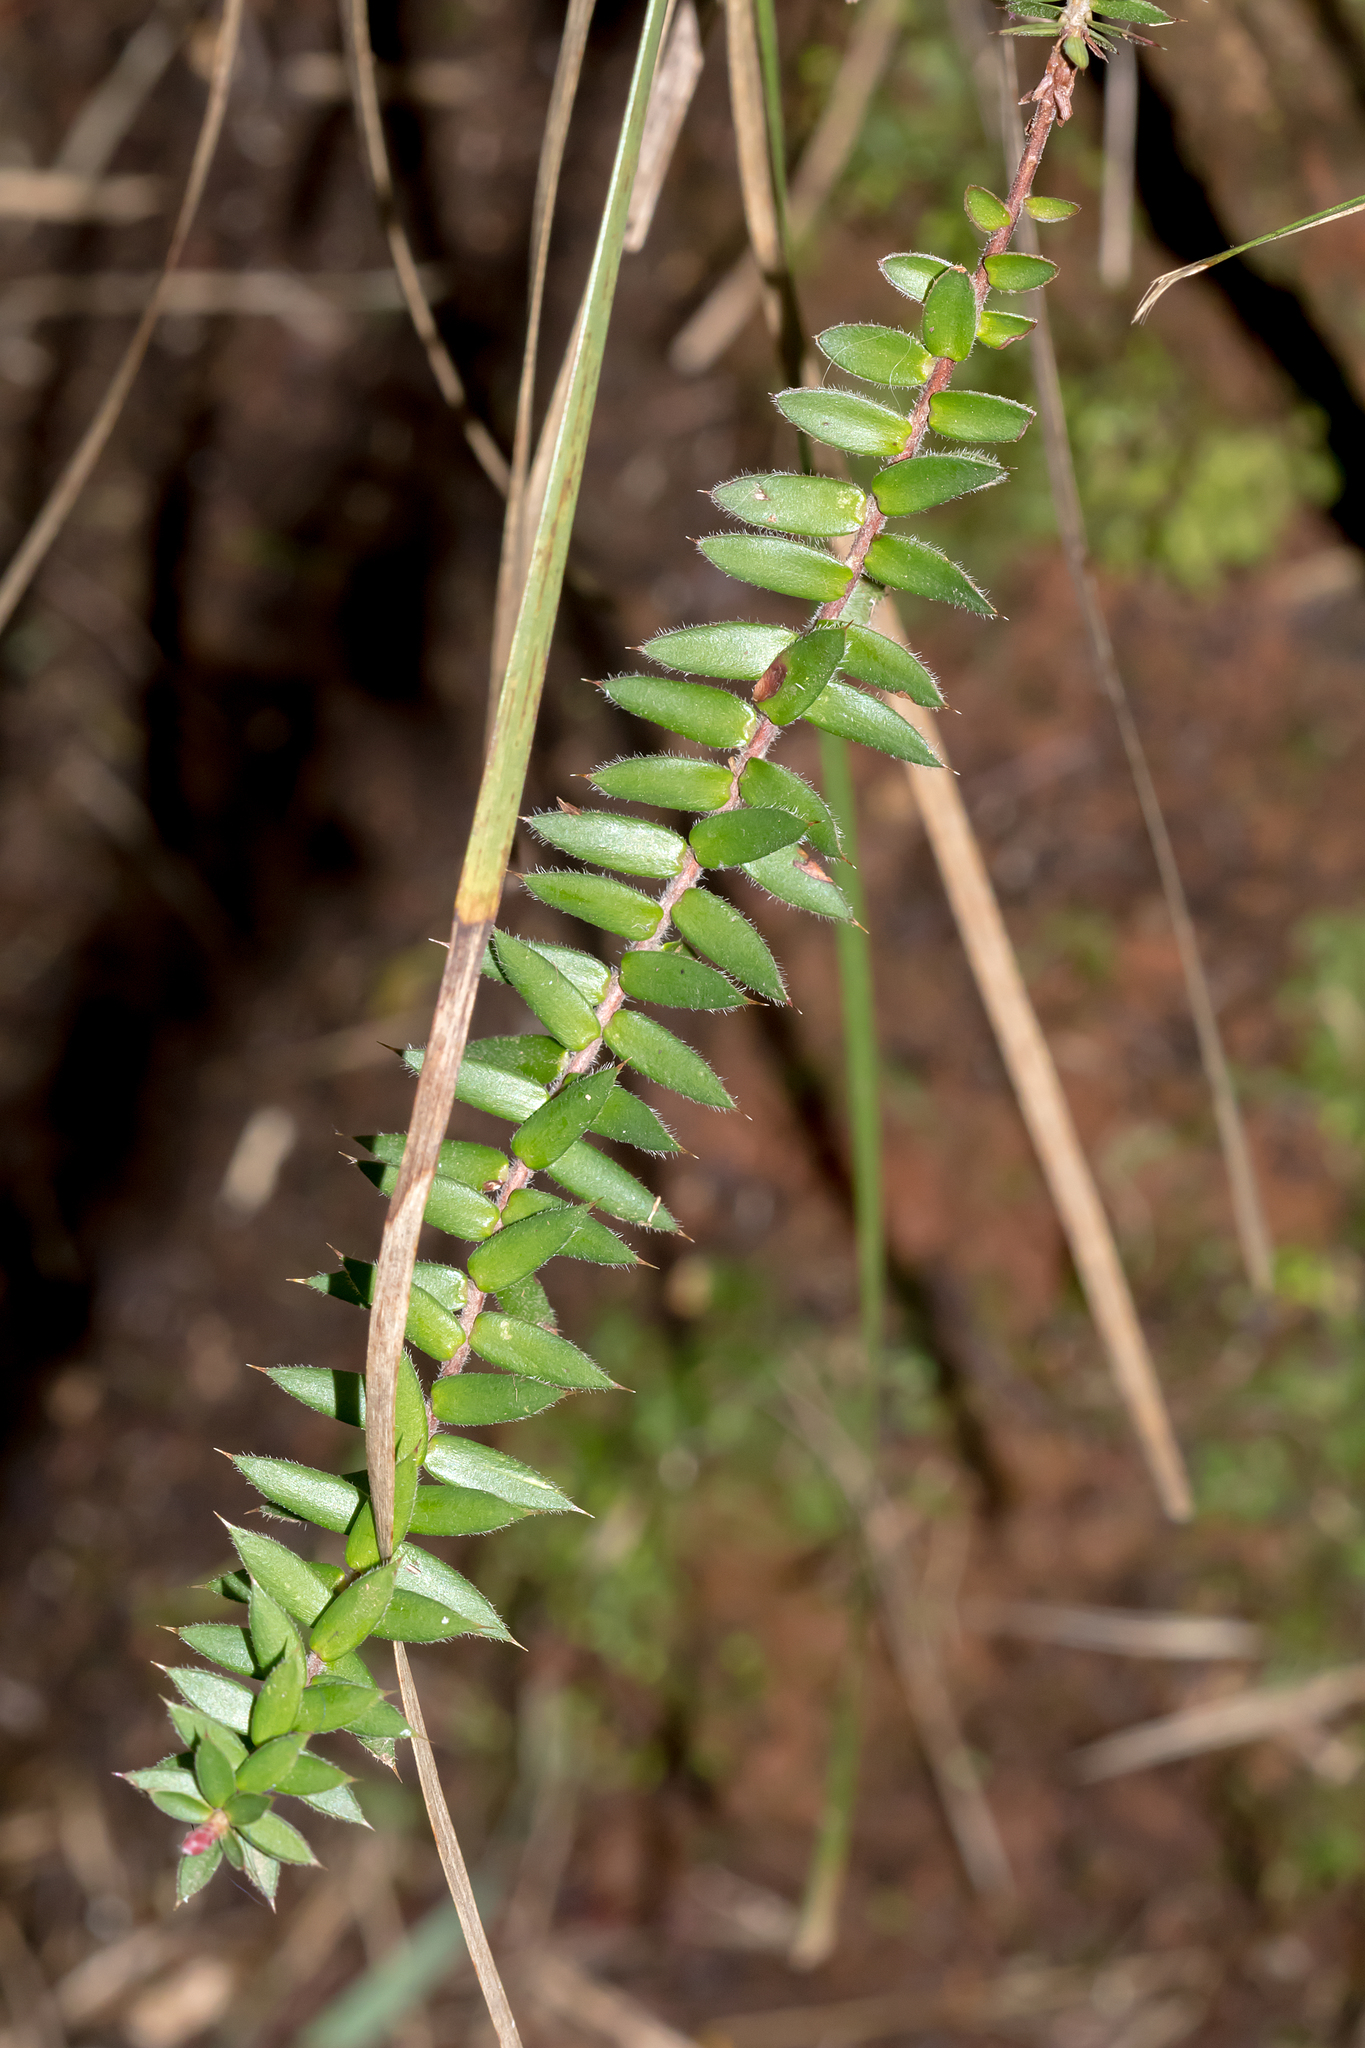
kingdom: Plantae
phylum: Tracheophyta
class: Magnoliopsida
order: Ericales
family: Ericaceae
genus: Acrotriche
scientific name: Acrotriche prostrata
